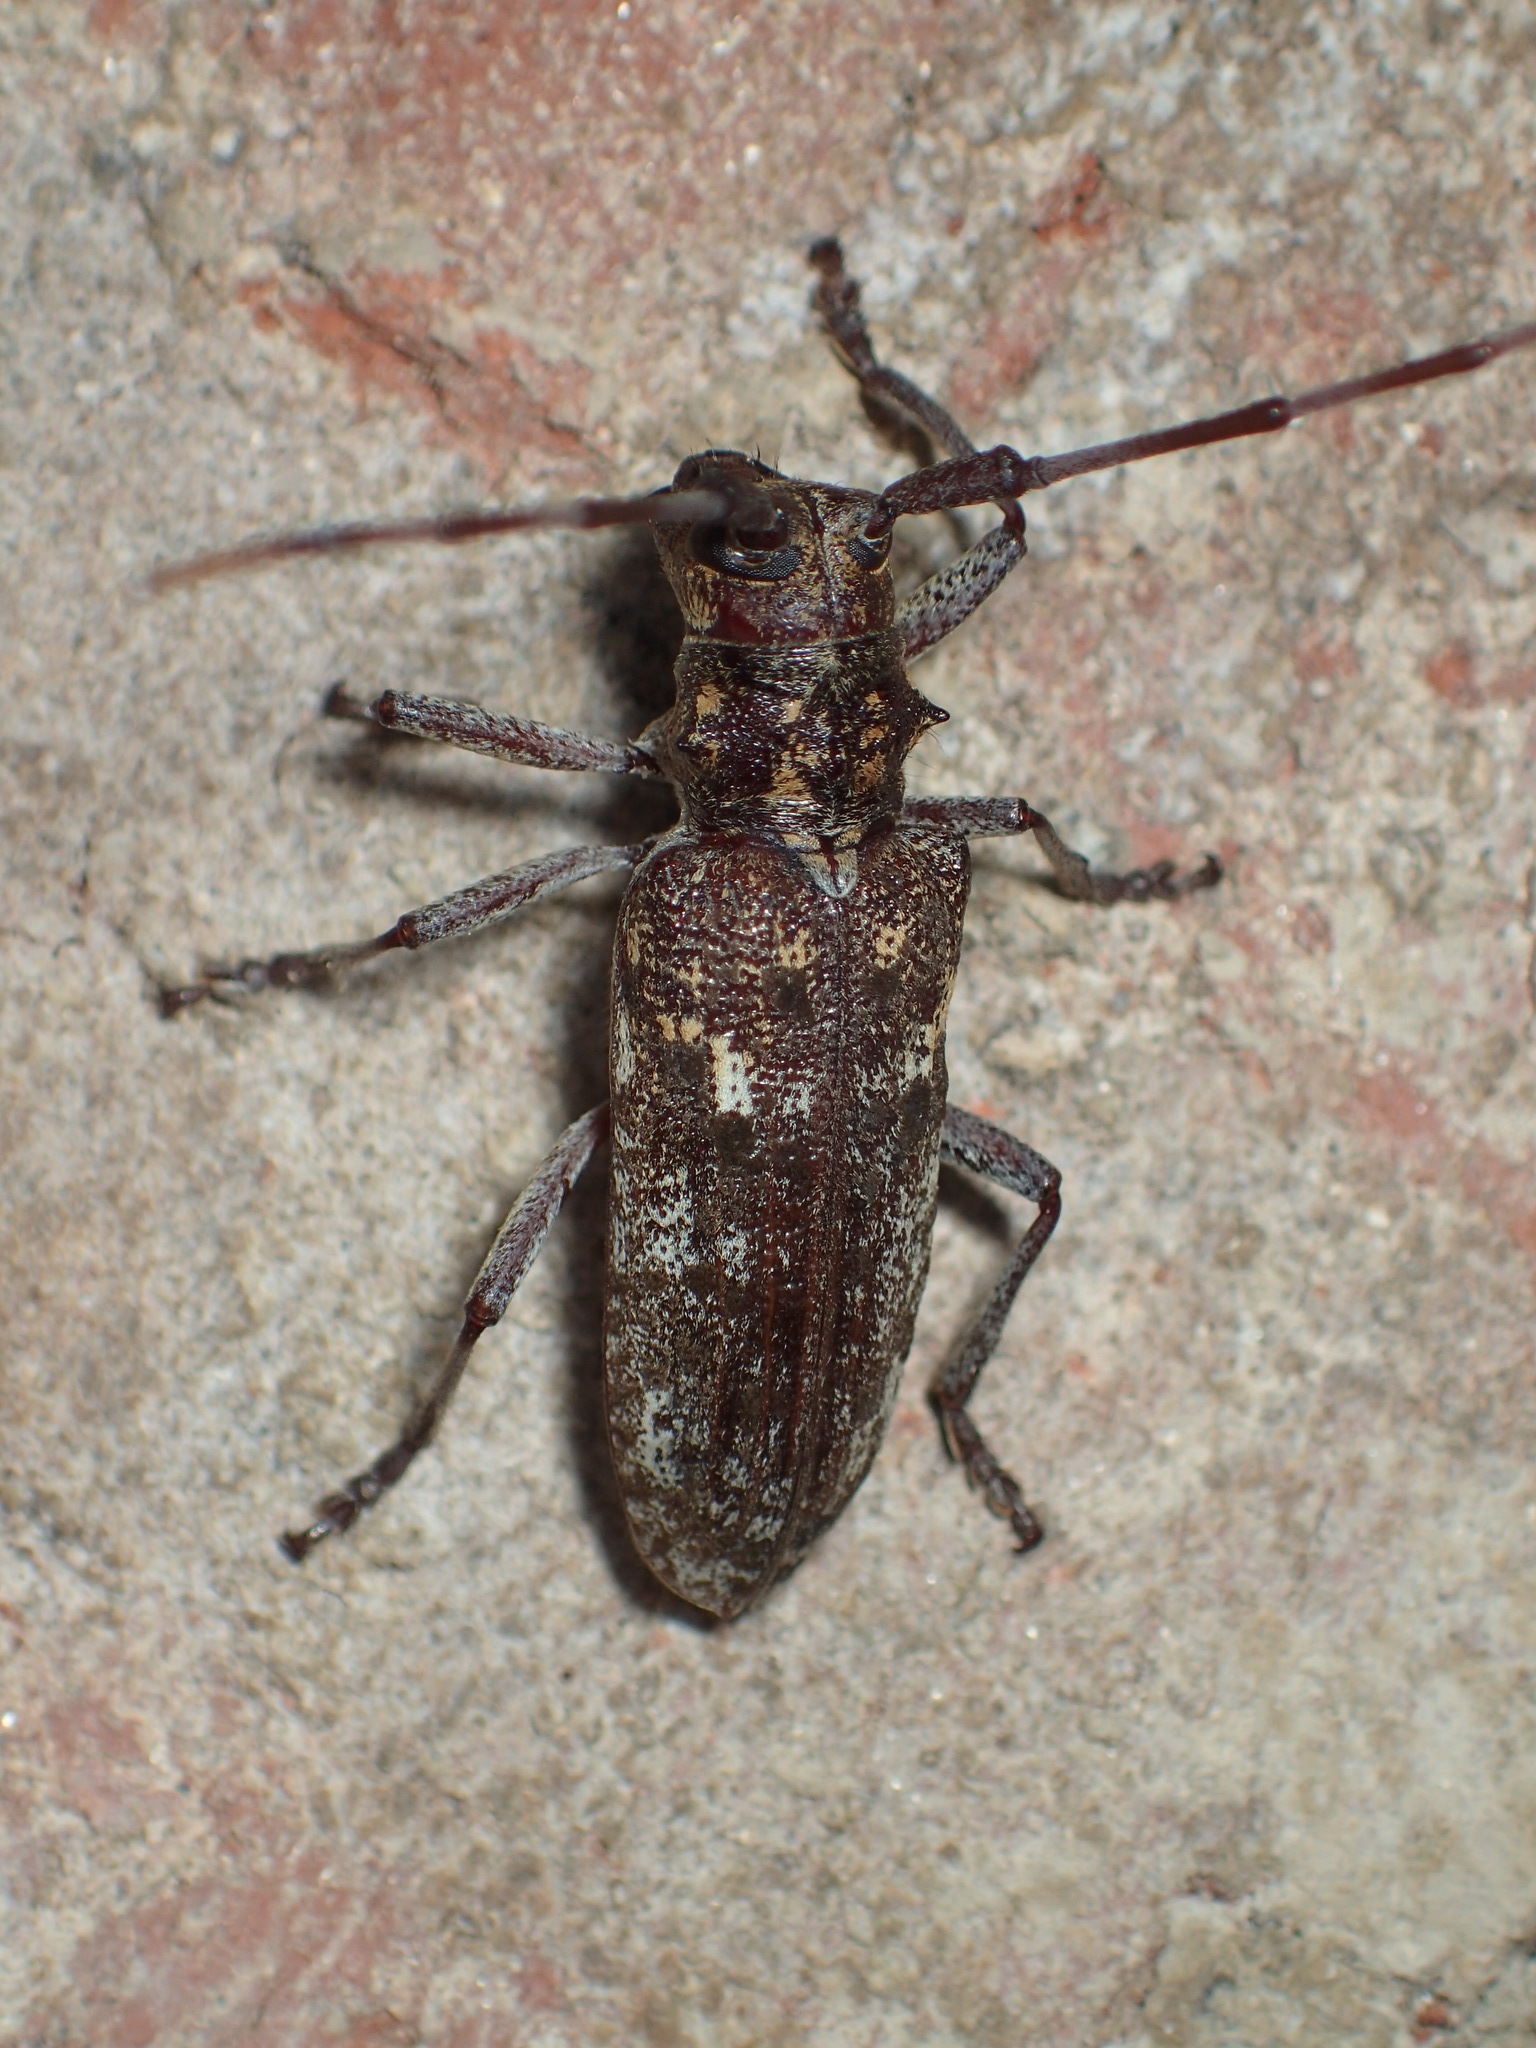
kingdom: Animalia
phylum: Arthropoda
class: Insecta
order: Coleoptera
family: Cerambycidae
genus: Monochamus
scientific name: Monochamus carolinensis
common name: Carolina pine sawyer
